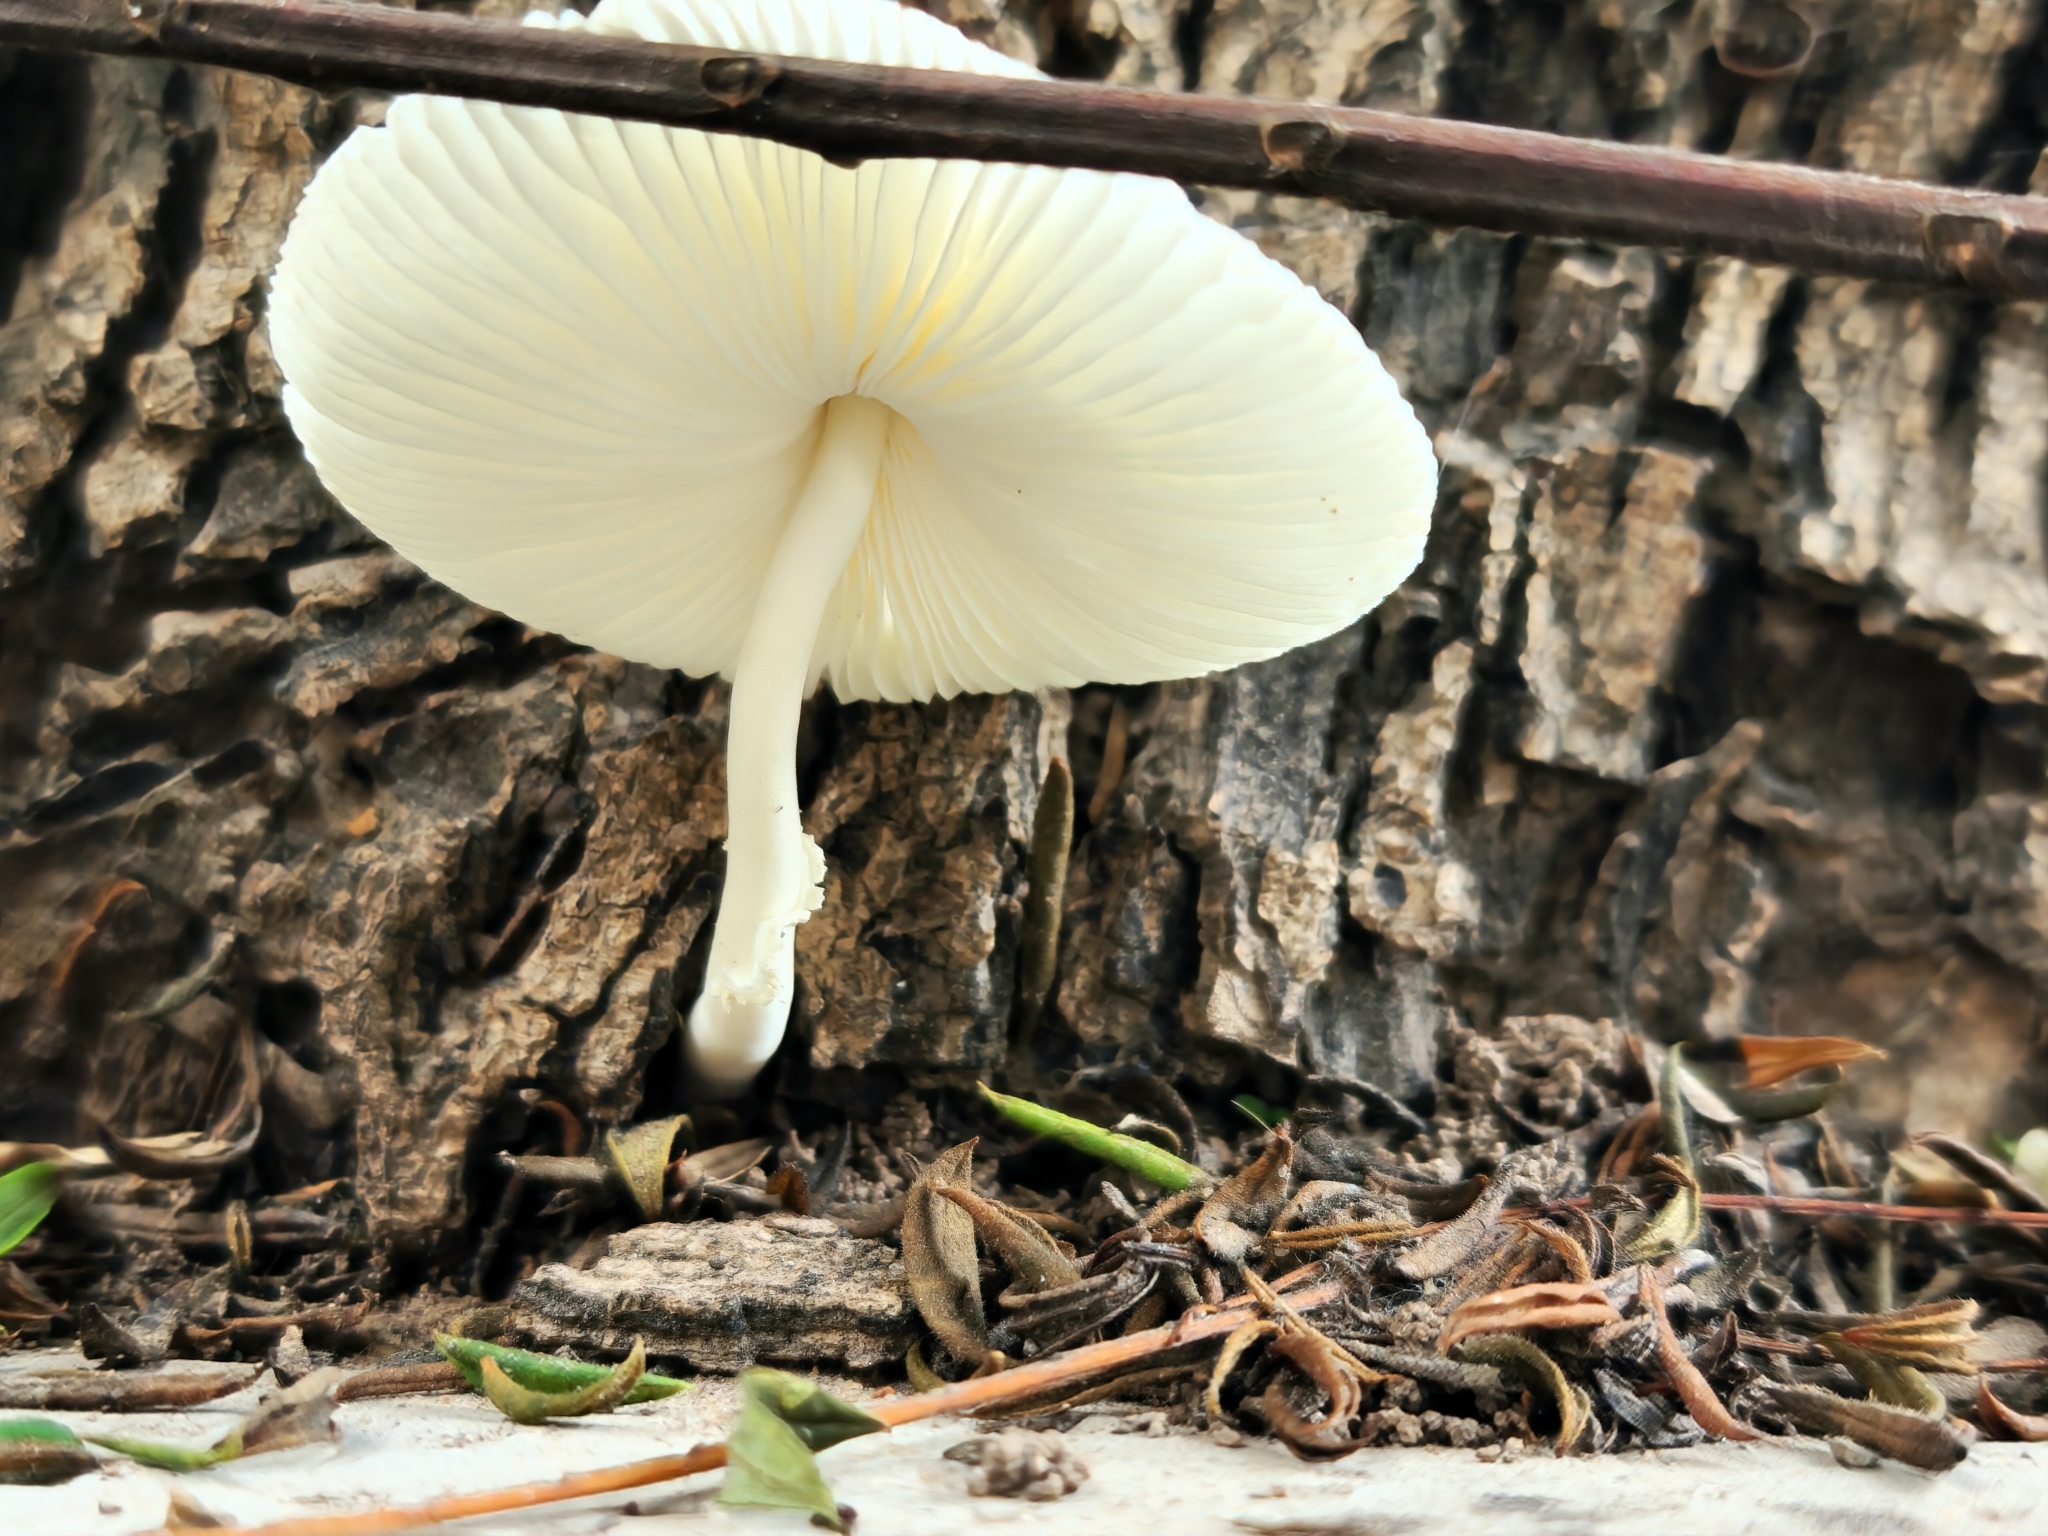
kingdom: Fungi
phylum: Basidiomycota
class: Agaricomycetes
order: Agaricales
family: Agaricaceae
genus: Leucocoprinus
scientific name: Leucocoprinus brebissonii
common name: Skullcap dapperling
